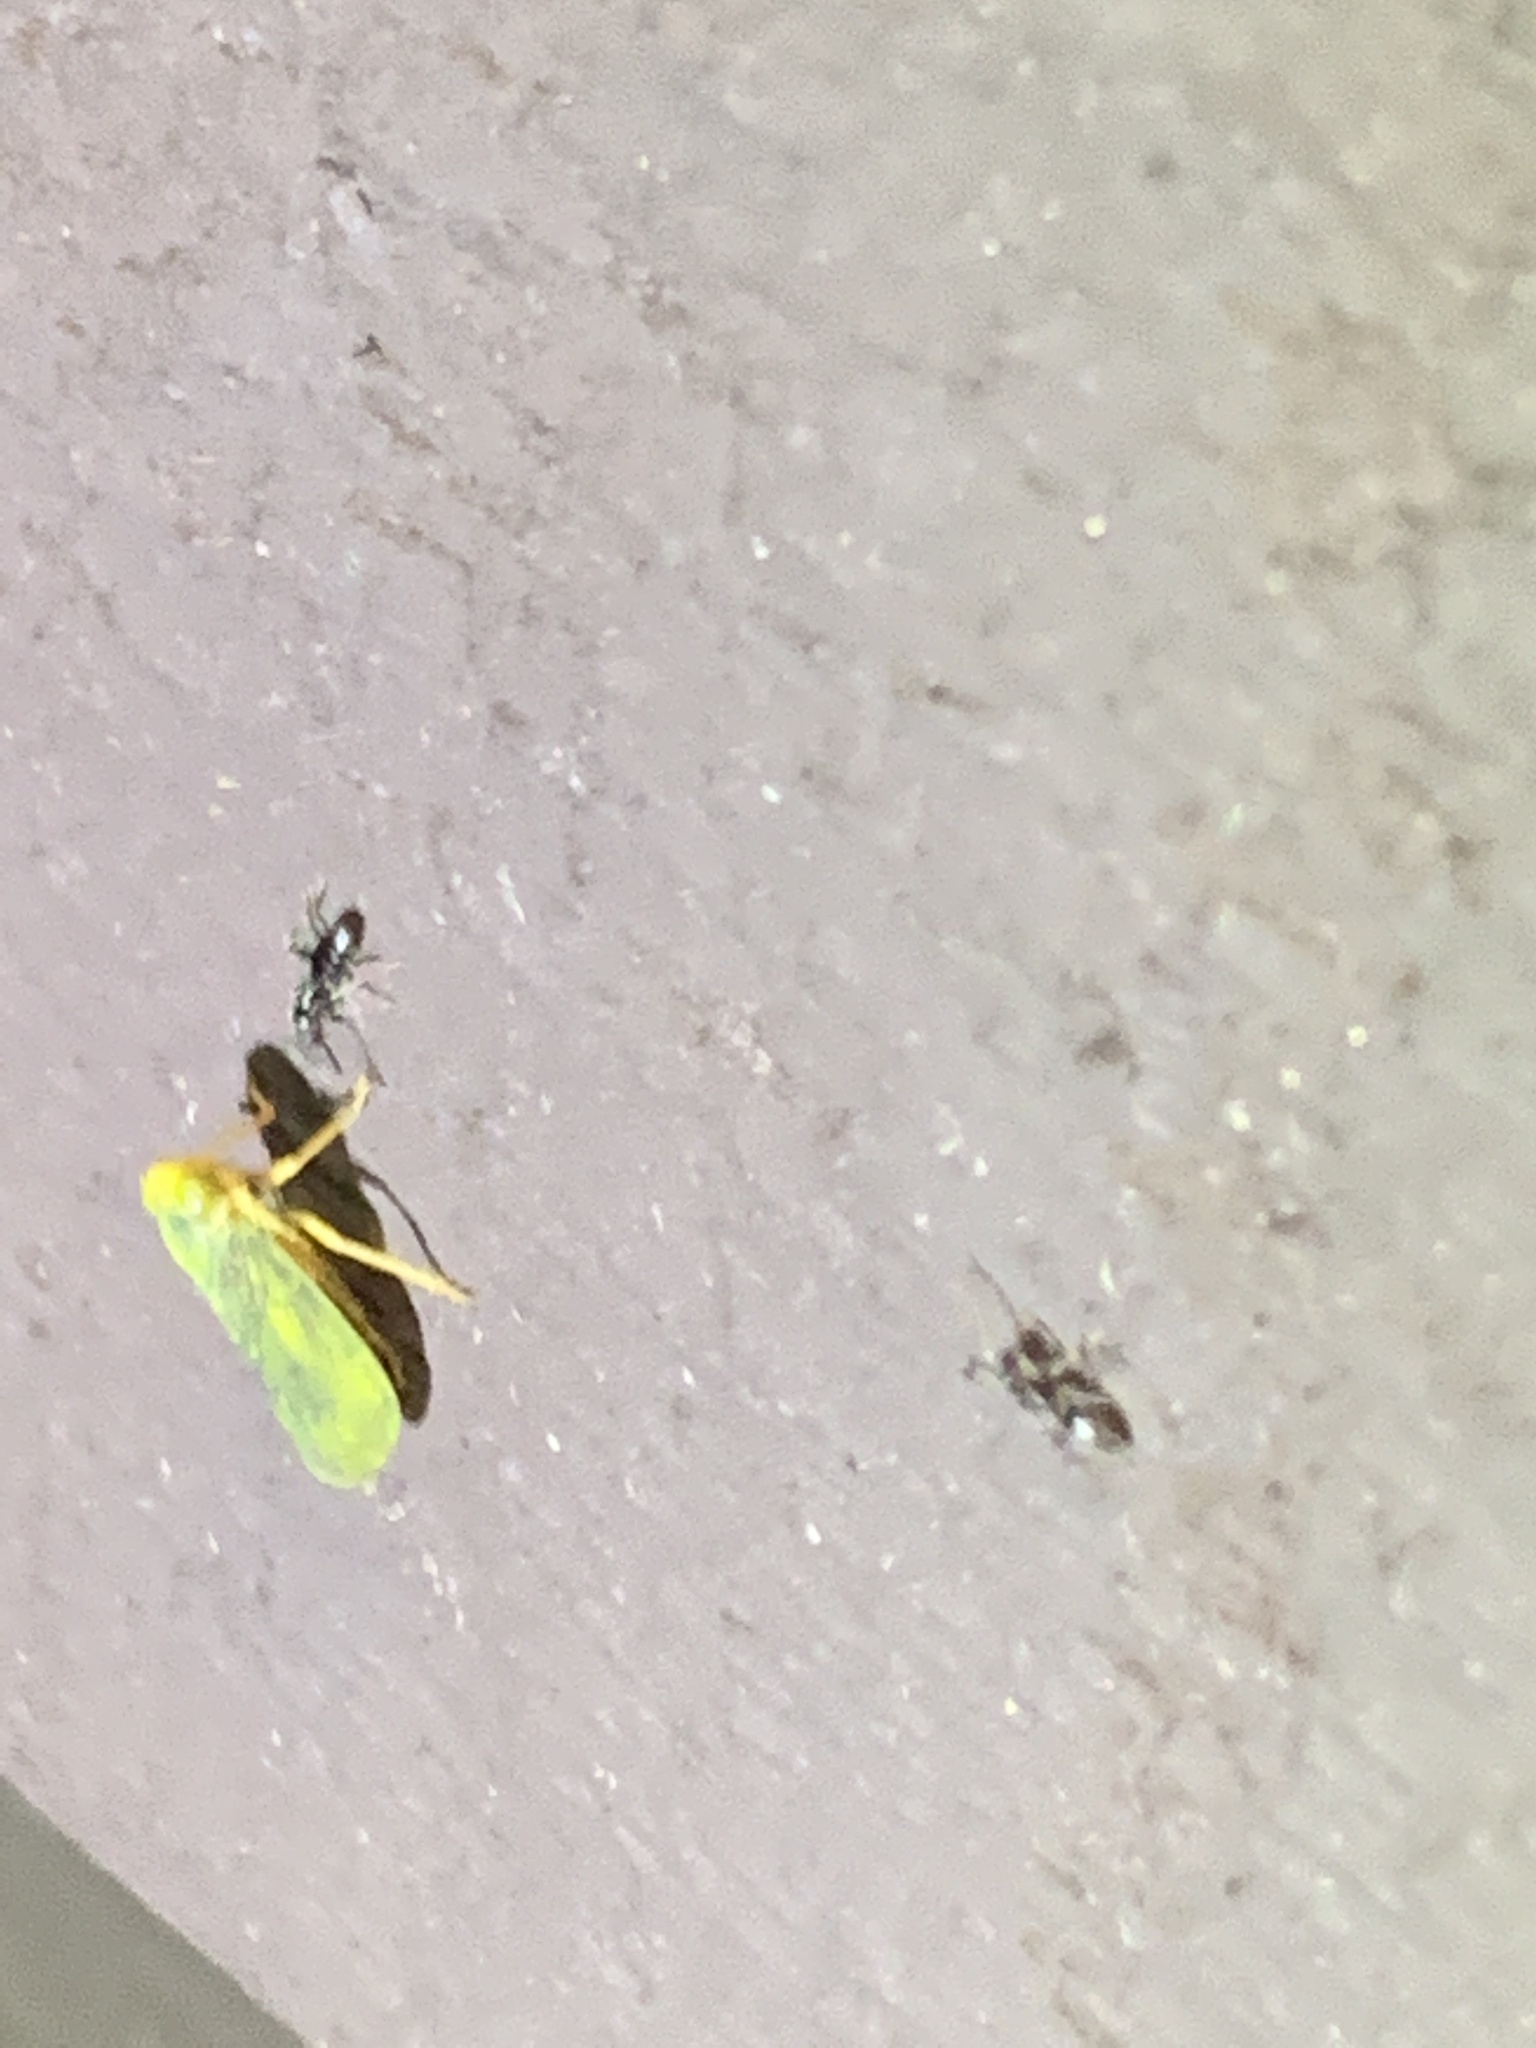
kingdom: Animalia
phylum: Arthropoda
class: Insecta
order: Hemiptera
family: Cicadellidae
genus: Jikradia
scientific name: Jikradia olitoria
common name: Coppery leafhopper
